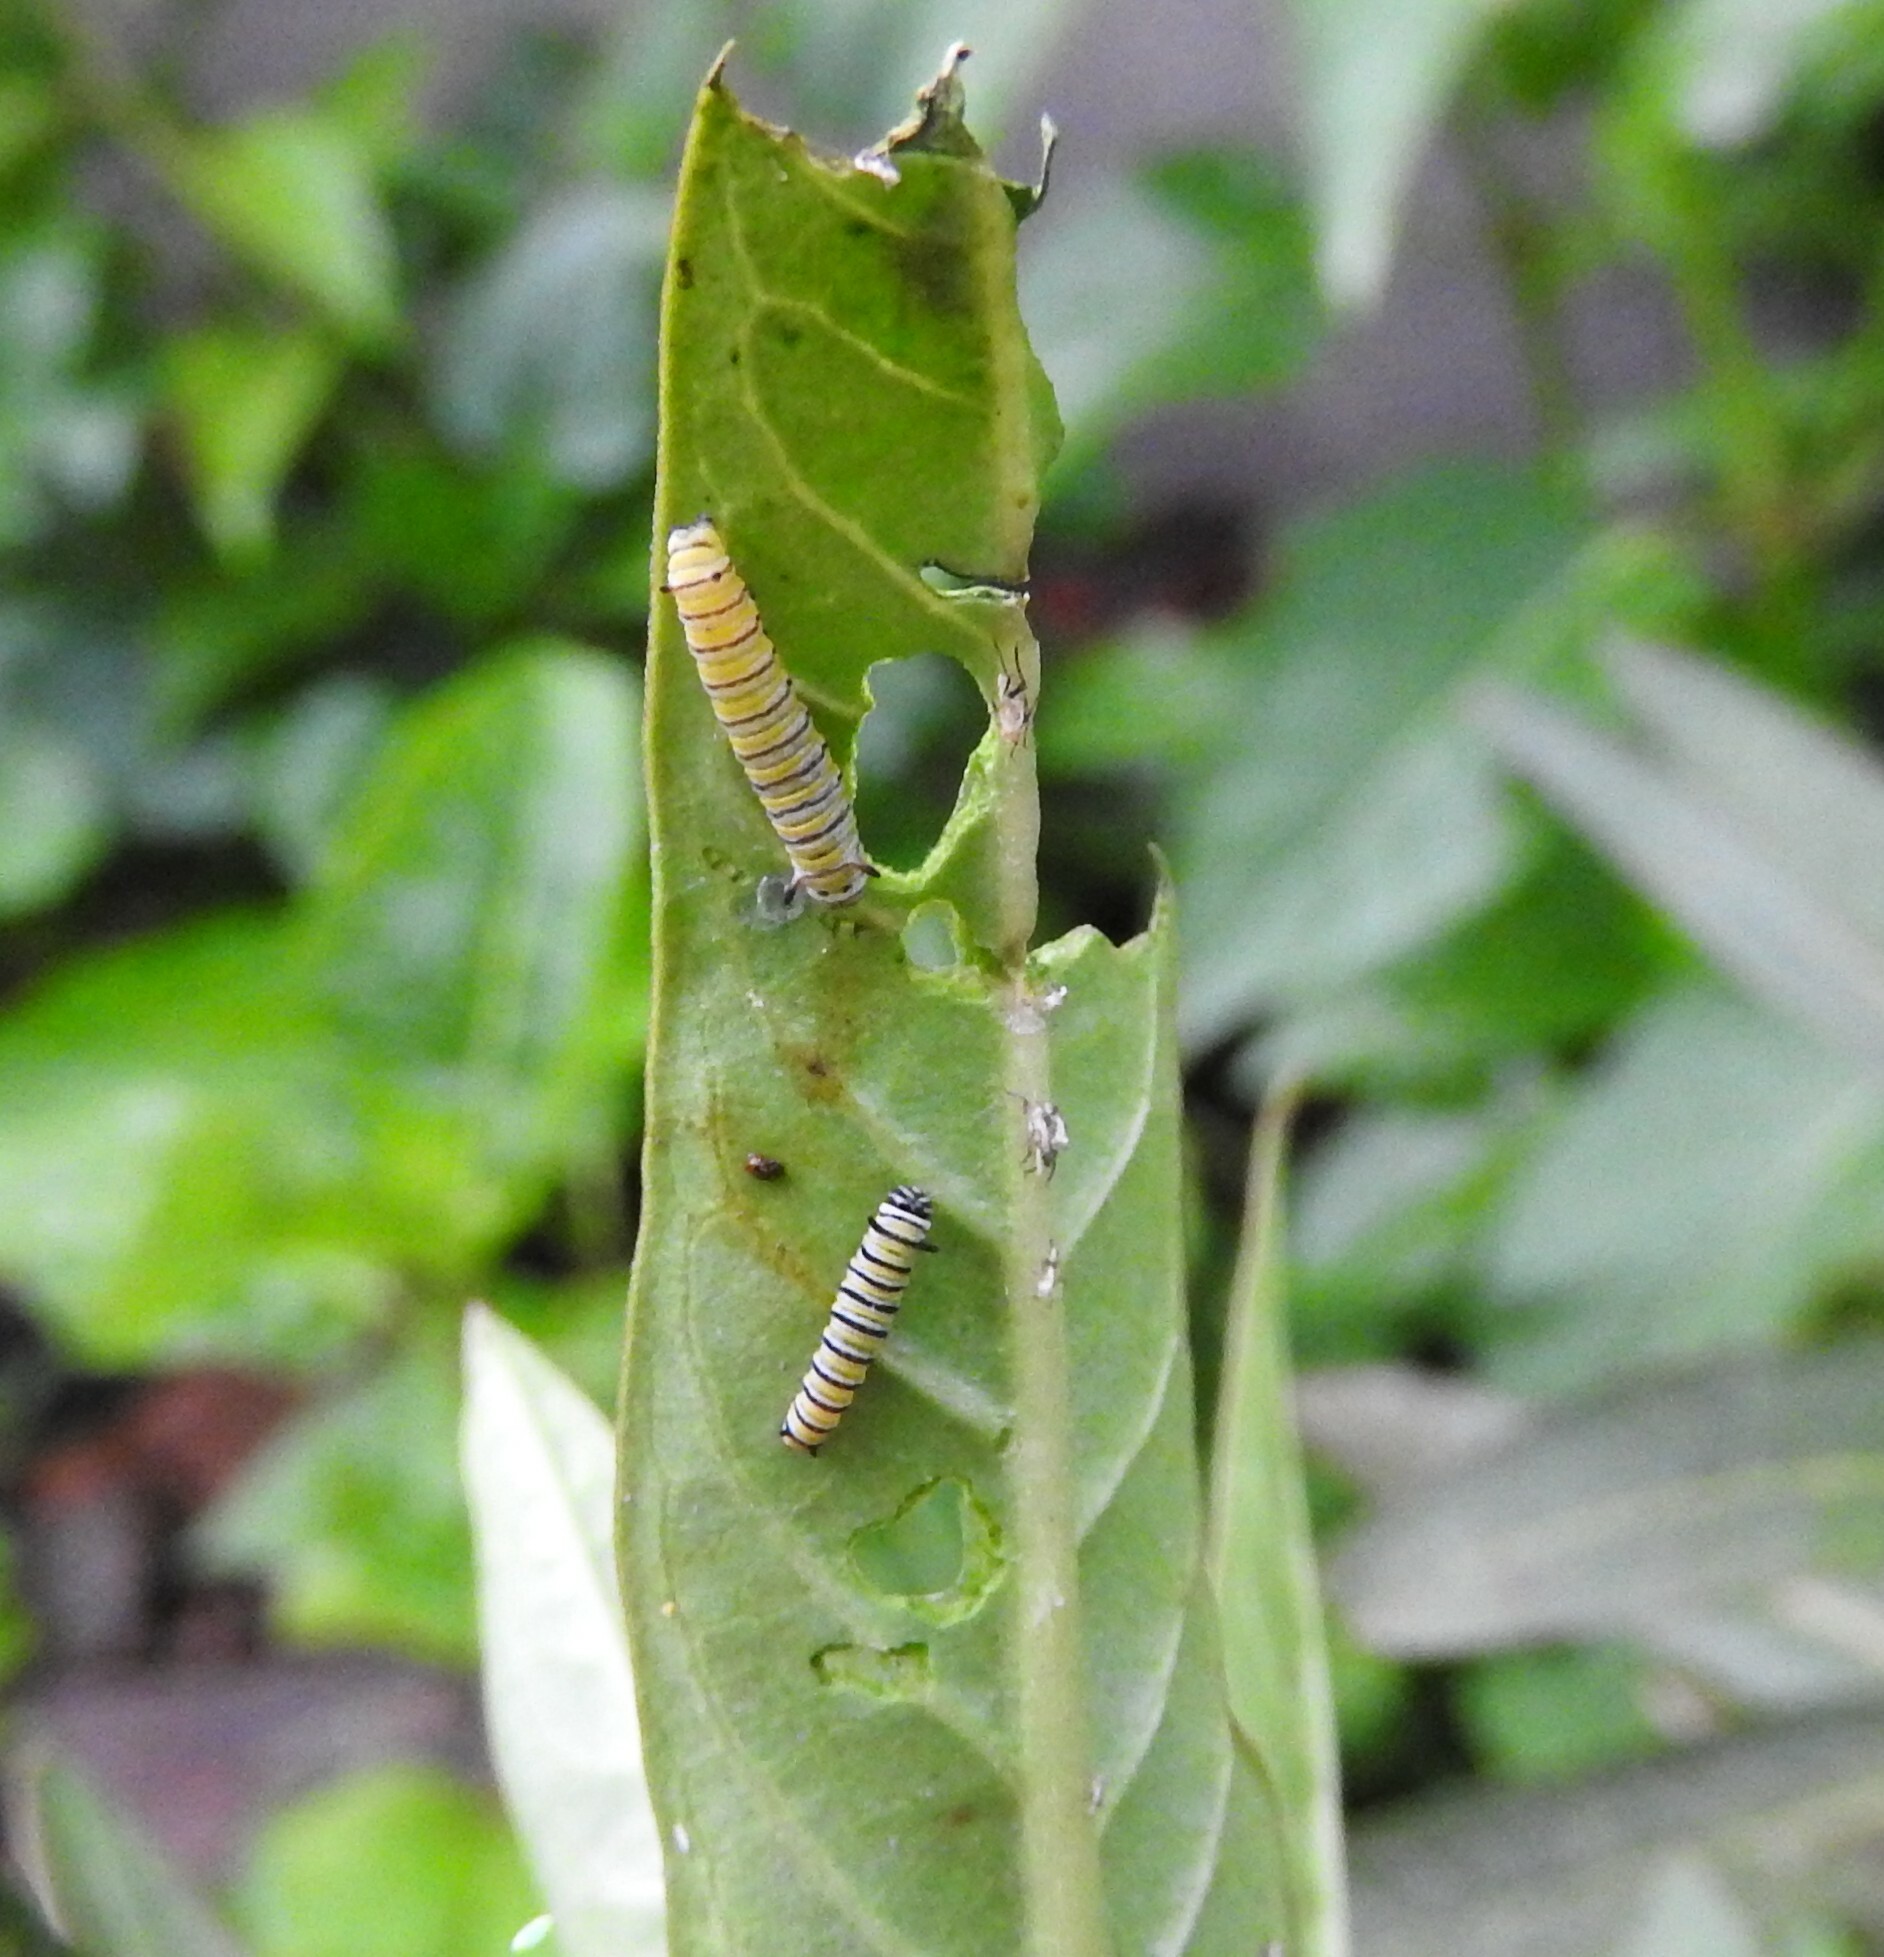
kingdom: Animalia
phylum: Arthropoda
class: Insecta
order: Lepidoptera
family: Nymphalidae
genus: Danaus
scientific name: Danaus plexippus
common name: Monarch
